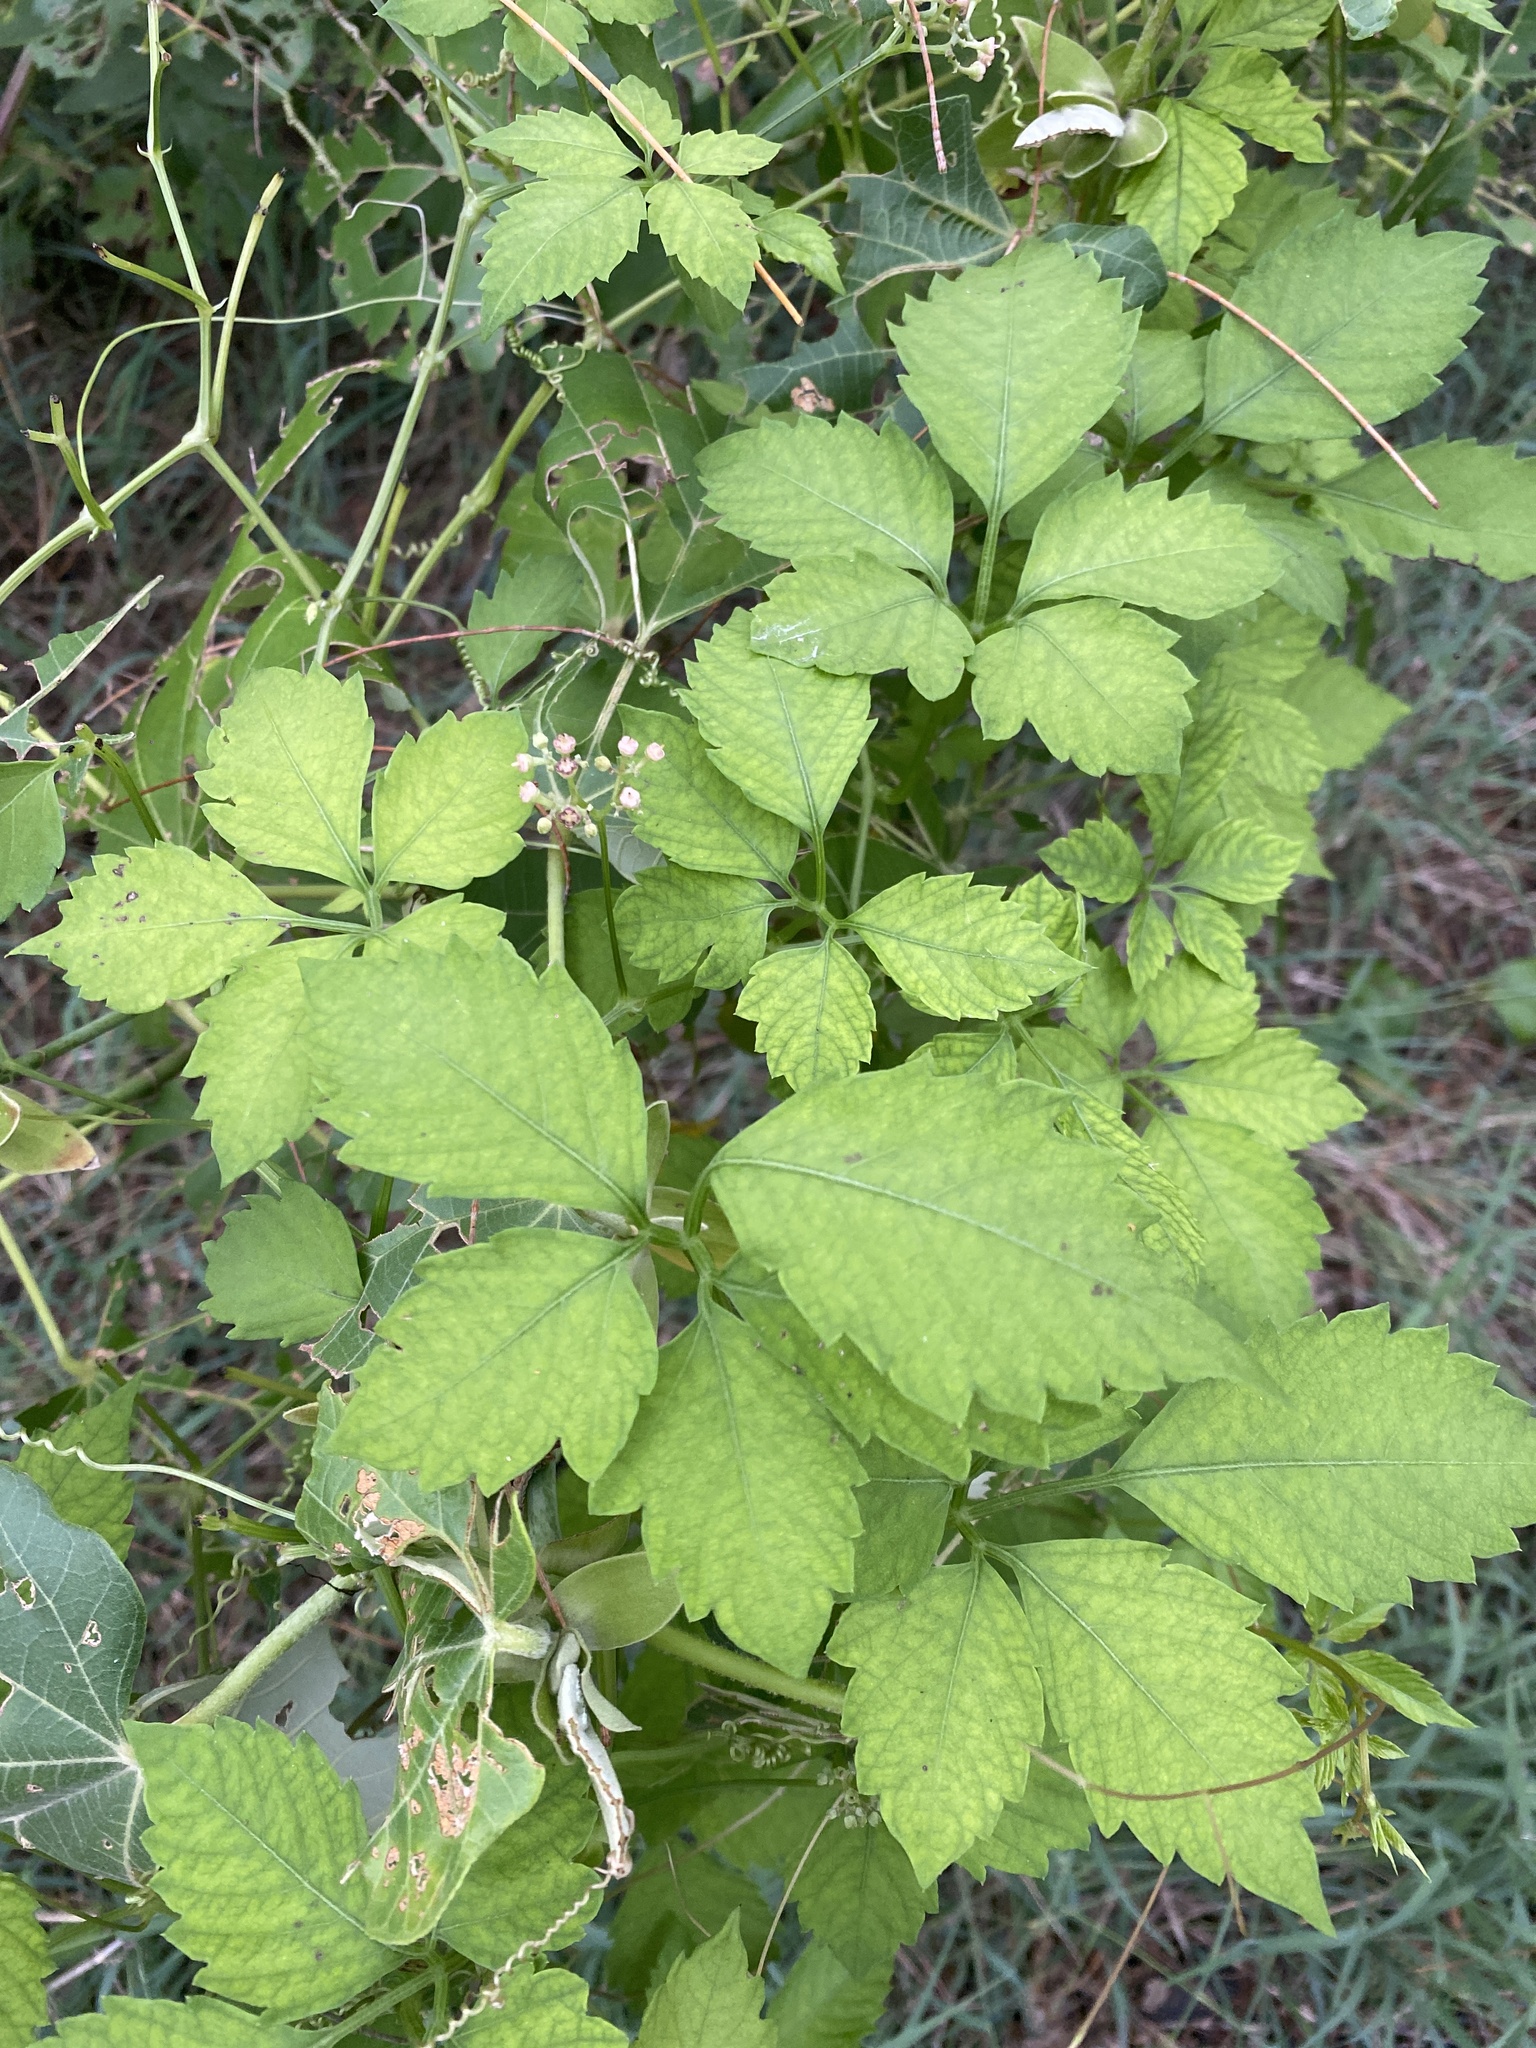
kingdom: Plantae
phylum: Tracheophyta
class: Magnoliopsida
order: Vitales
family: Vitaceae
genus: Causonis
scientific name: Causonis clematidea
